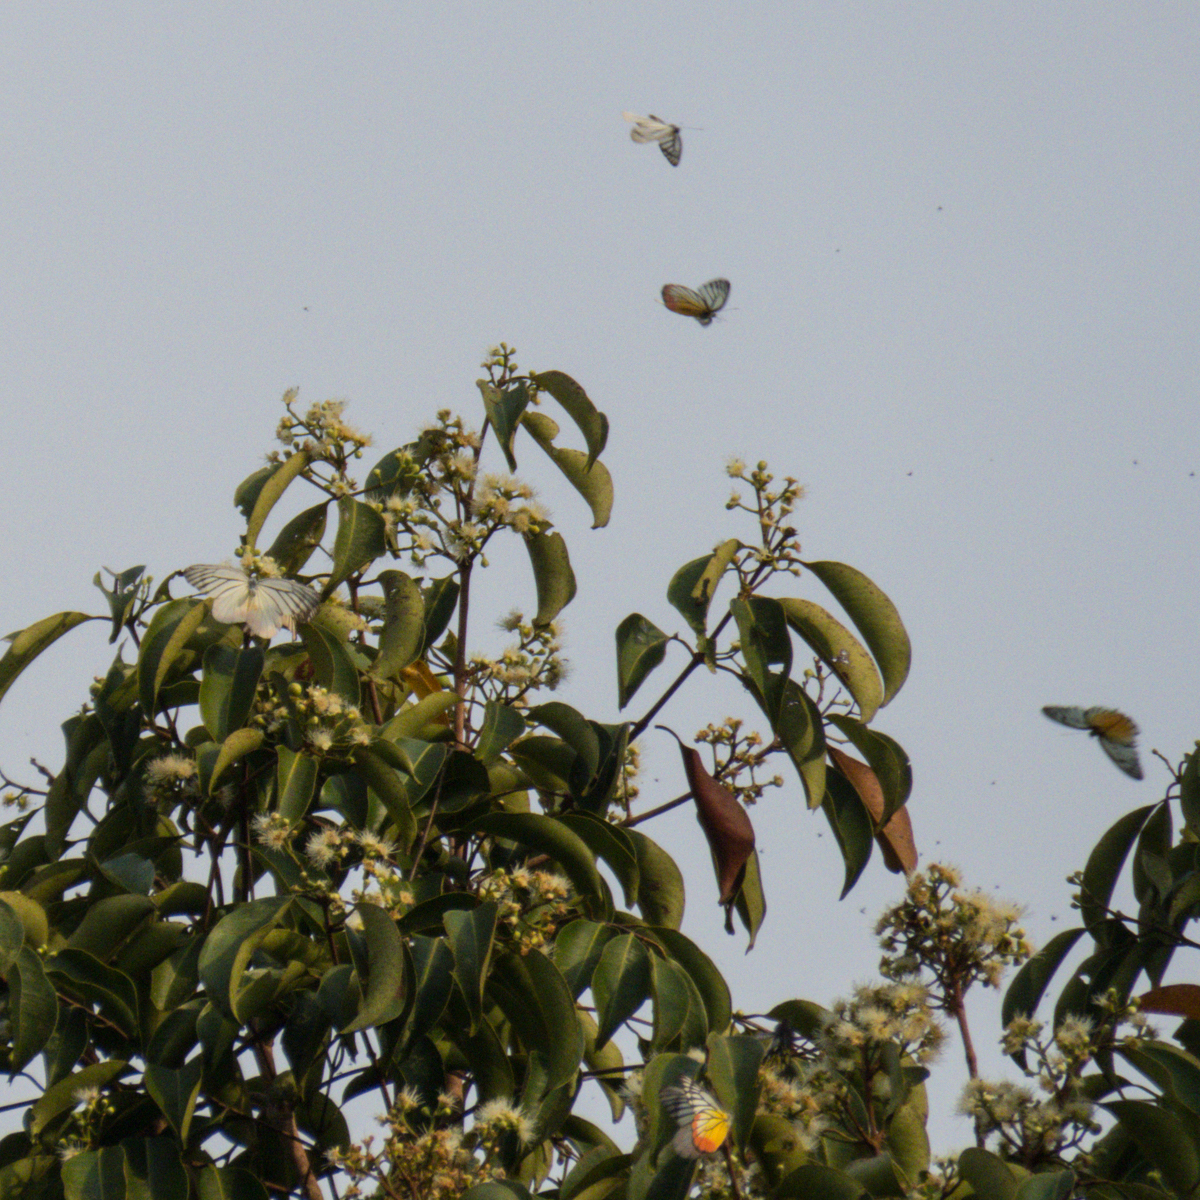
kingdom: Animalia
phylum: Arthropoda
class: Insecta
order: Lepidoptera
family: Pieridae
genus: Delias
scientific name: Delias hyparete
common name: Painted jezebel
